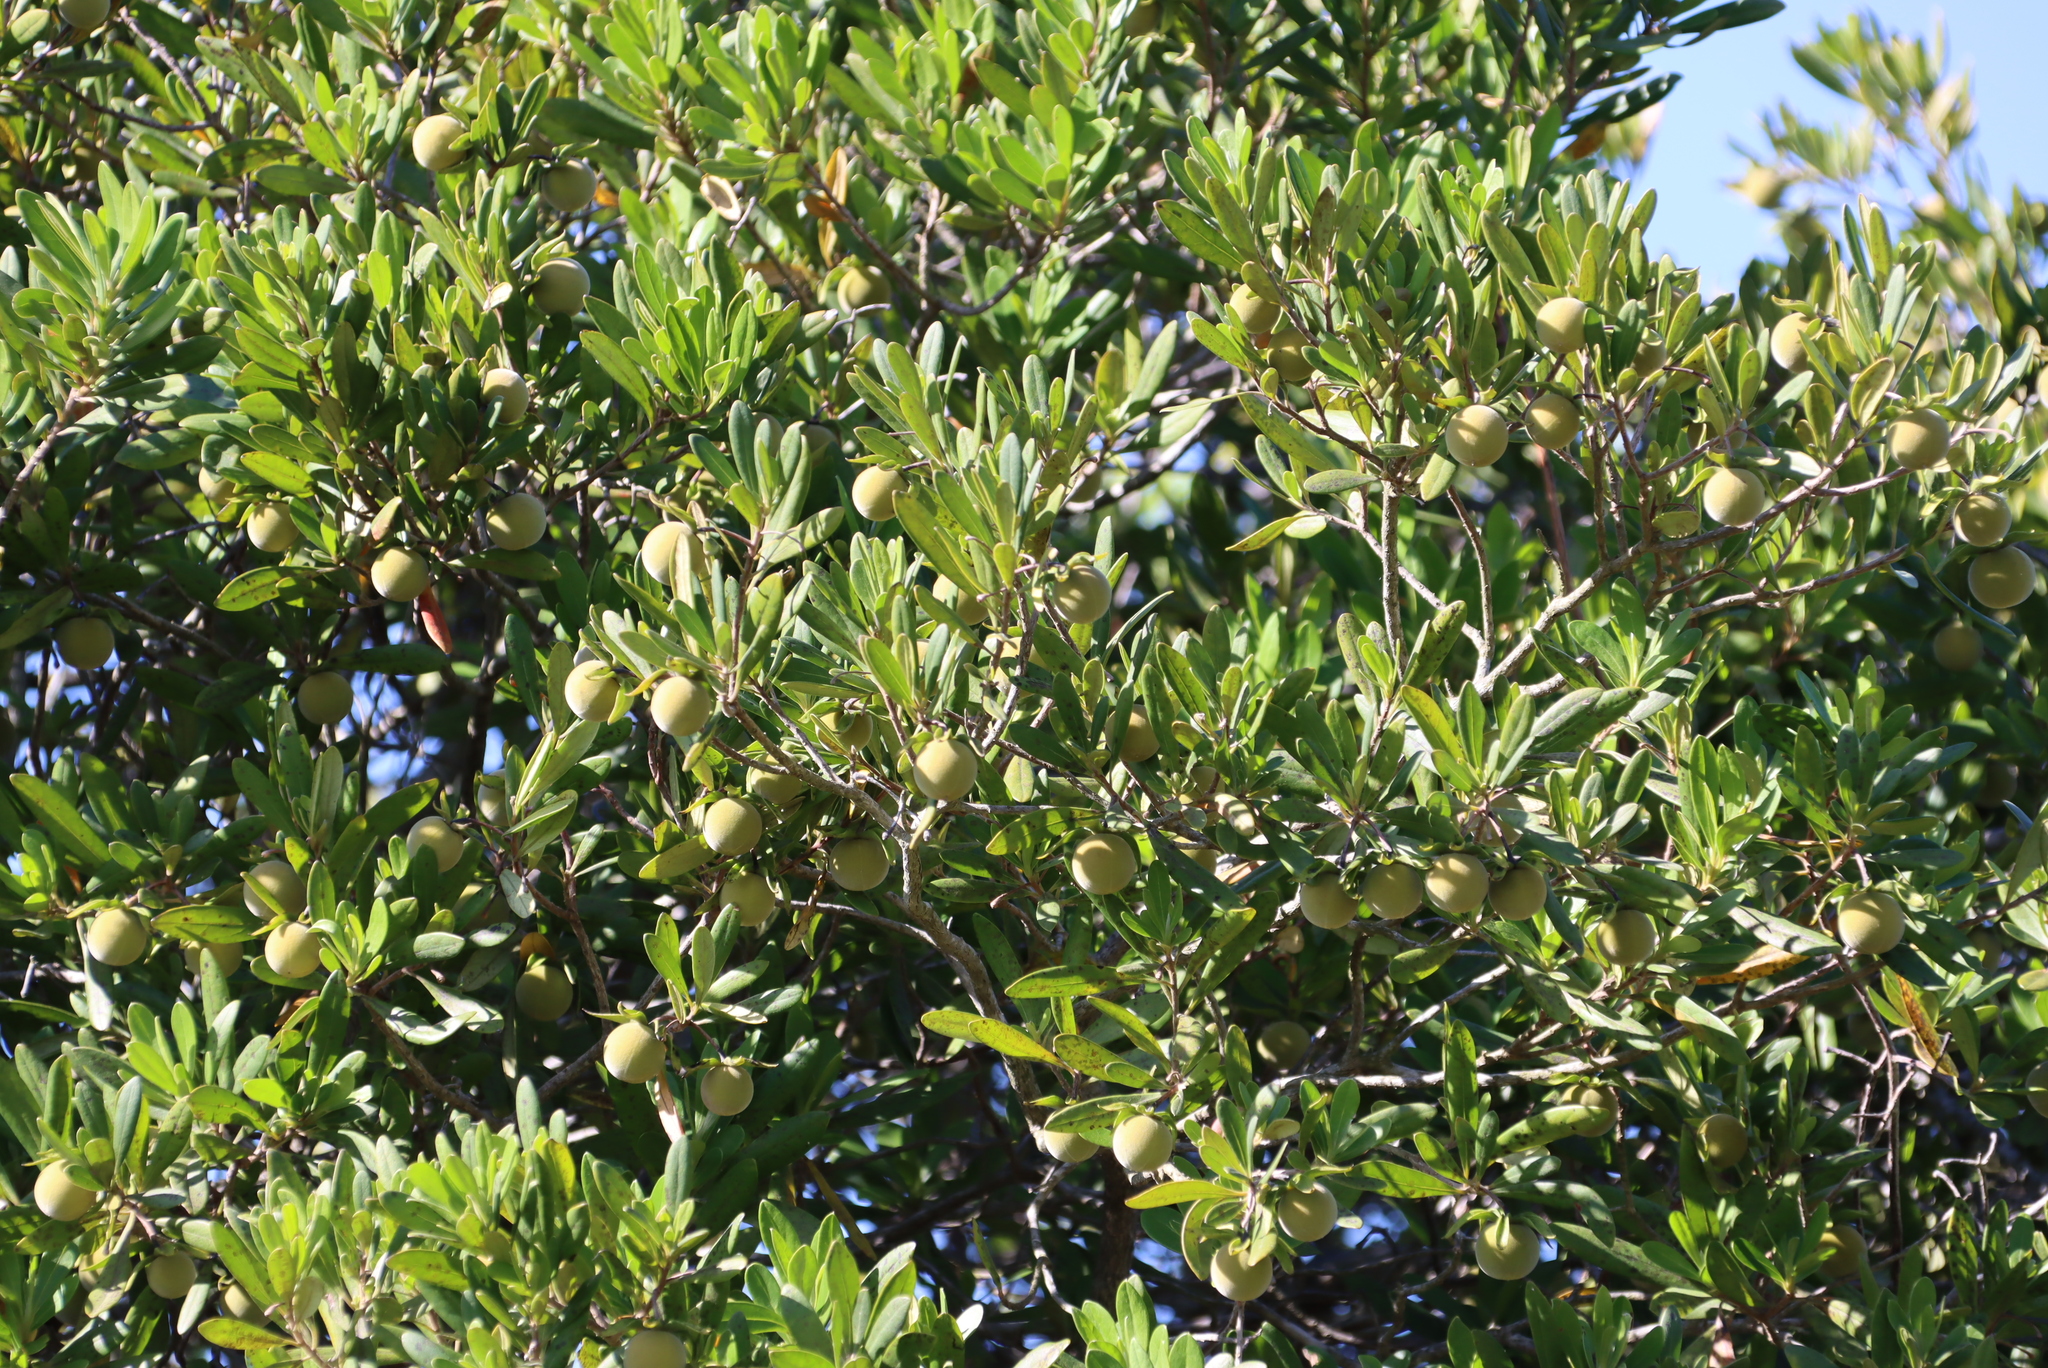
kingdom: Plantae
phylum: Tracheophyta
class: Magnoliopsida
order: Ericales
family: Ebenaceae
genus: Diospyros
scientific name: Diospyros dichrophylla
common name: Common star-apple
